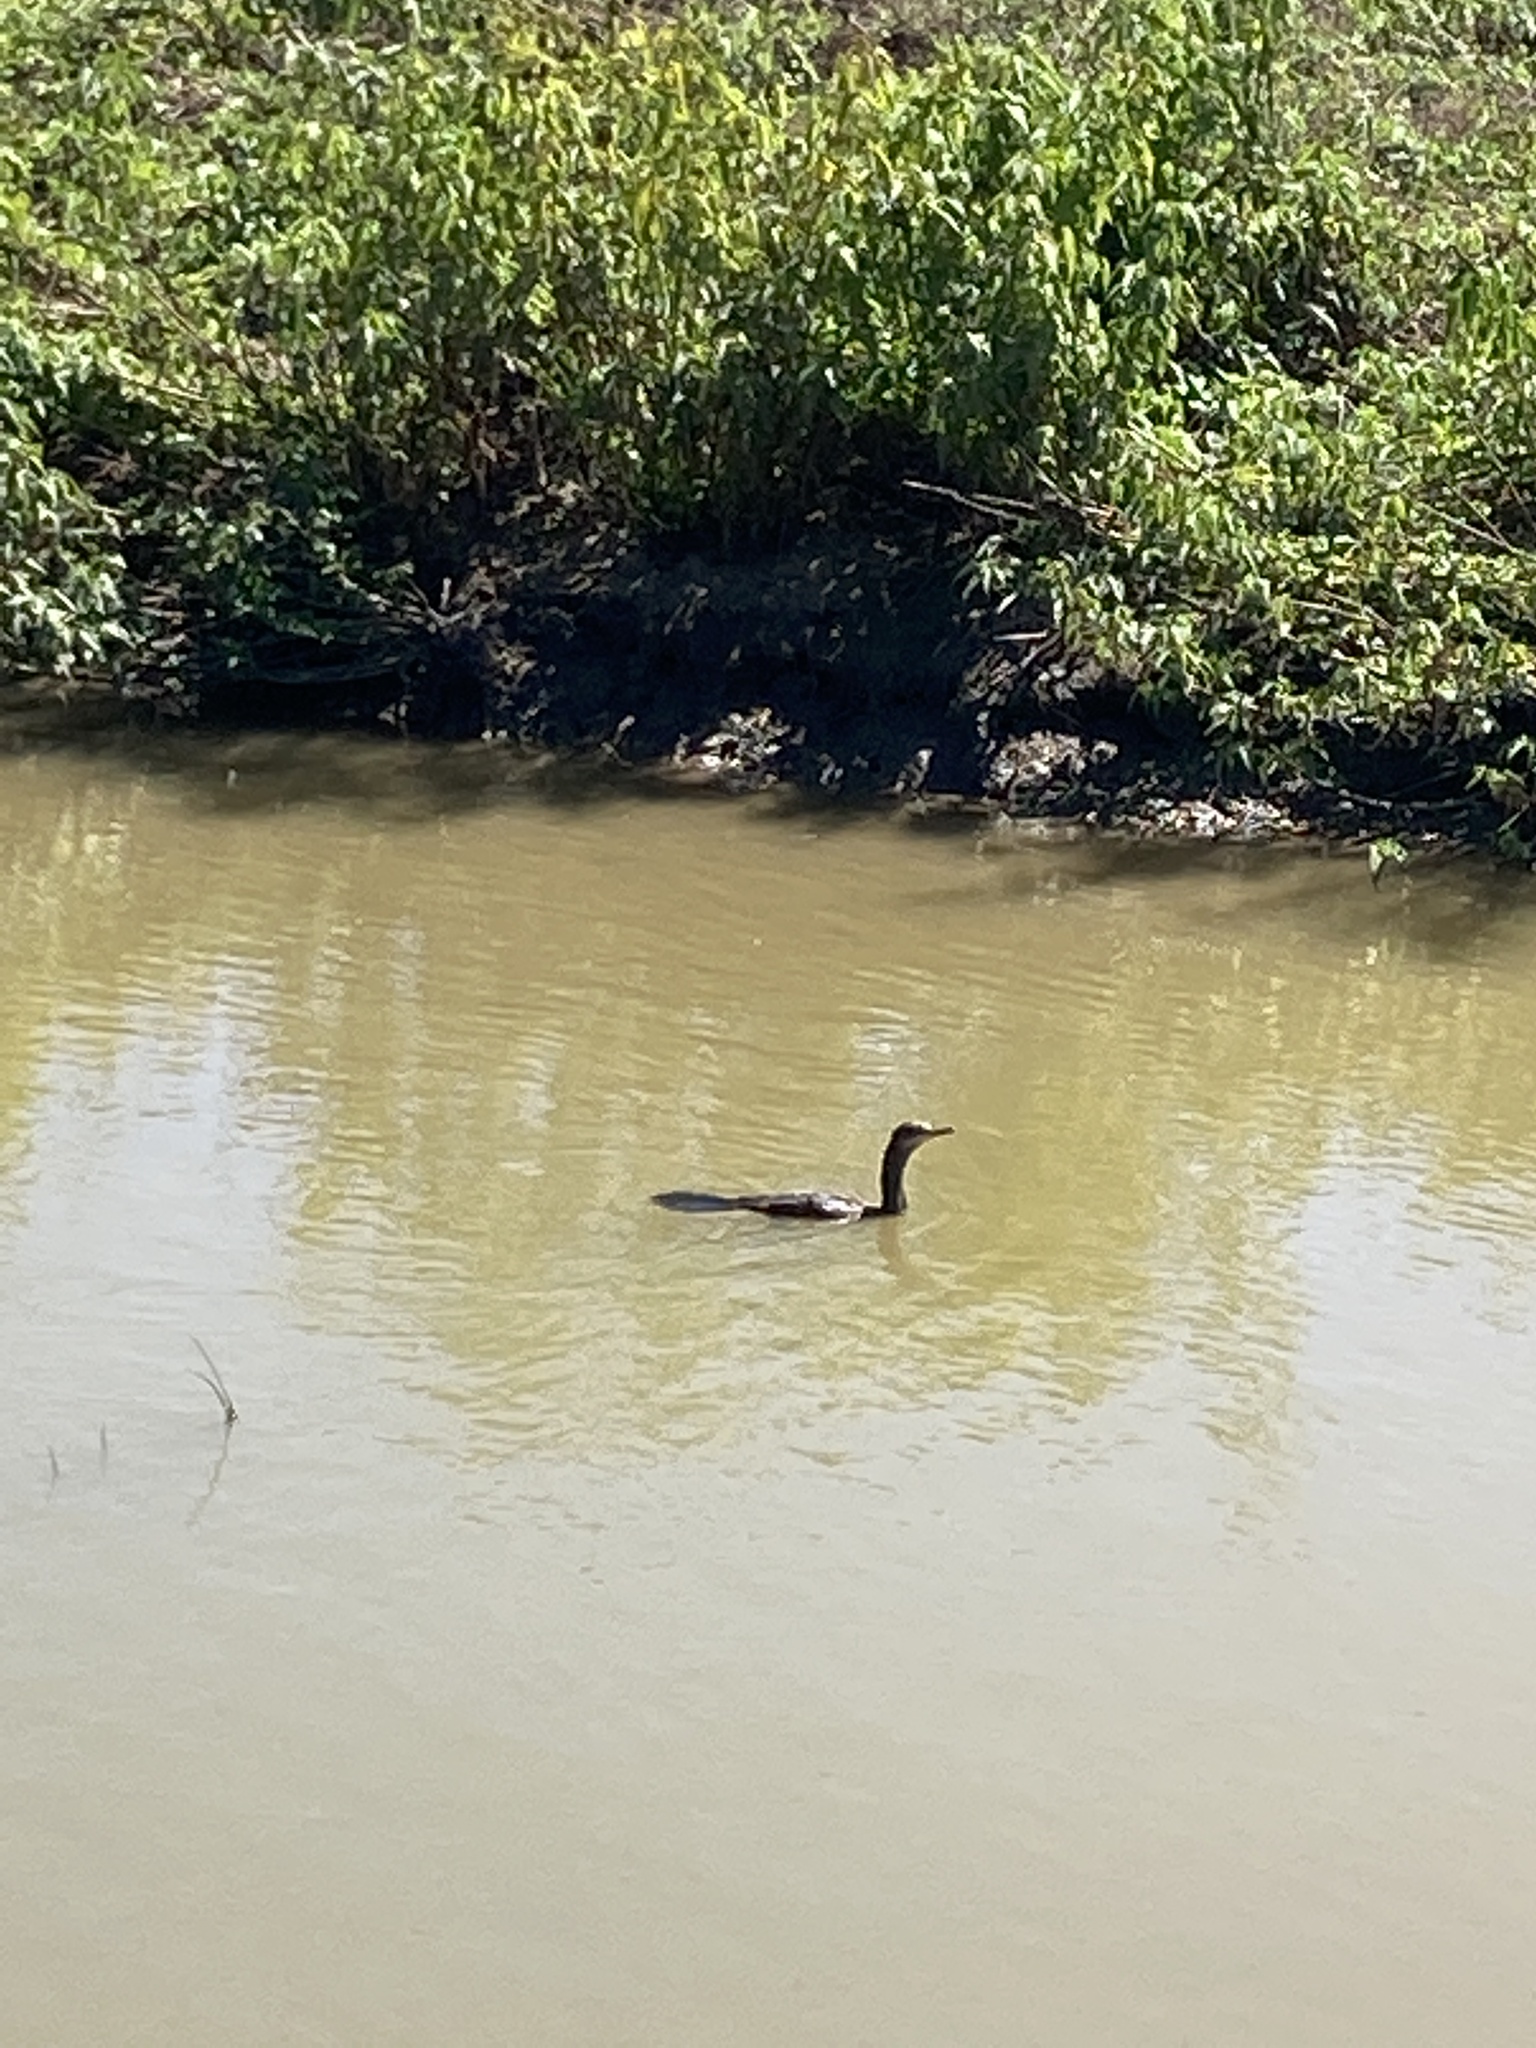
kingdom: Animalia
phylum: Chordata
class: Aves
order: Suliformes
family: Phalacrocoracidae
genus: Phalacrocorax
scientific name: Phalacrocorax auritus
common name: Double-crested cormorant
